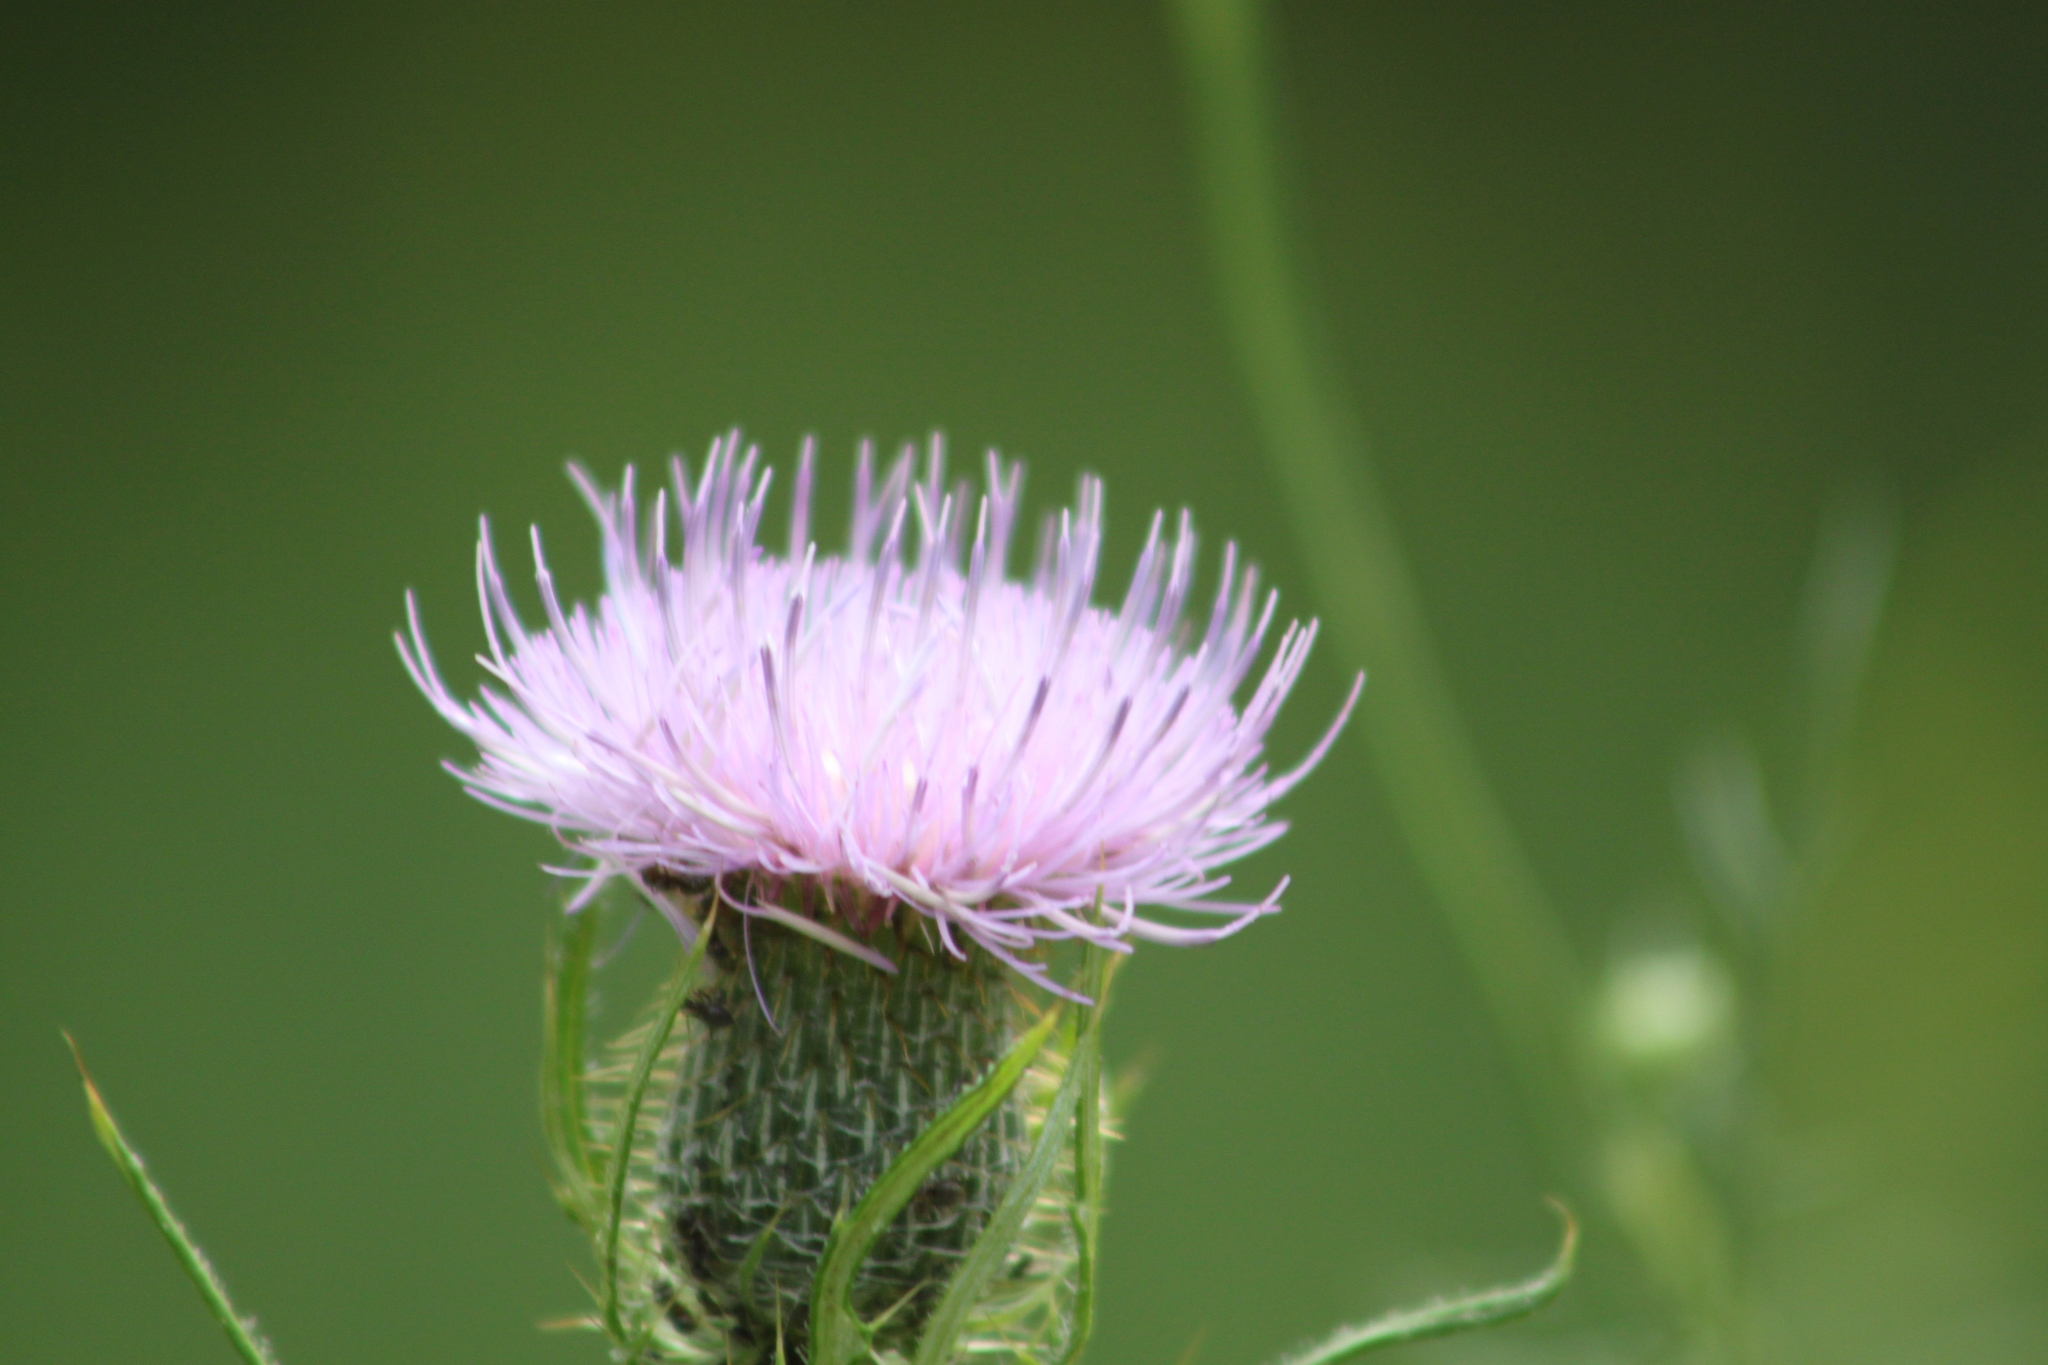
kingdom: Plantae
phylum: Tracheophyta
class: Magnoliopsida
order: Asterales
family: Asteraceae
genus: Cirsium
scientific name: Cirsium discolor
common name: Field thistle
